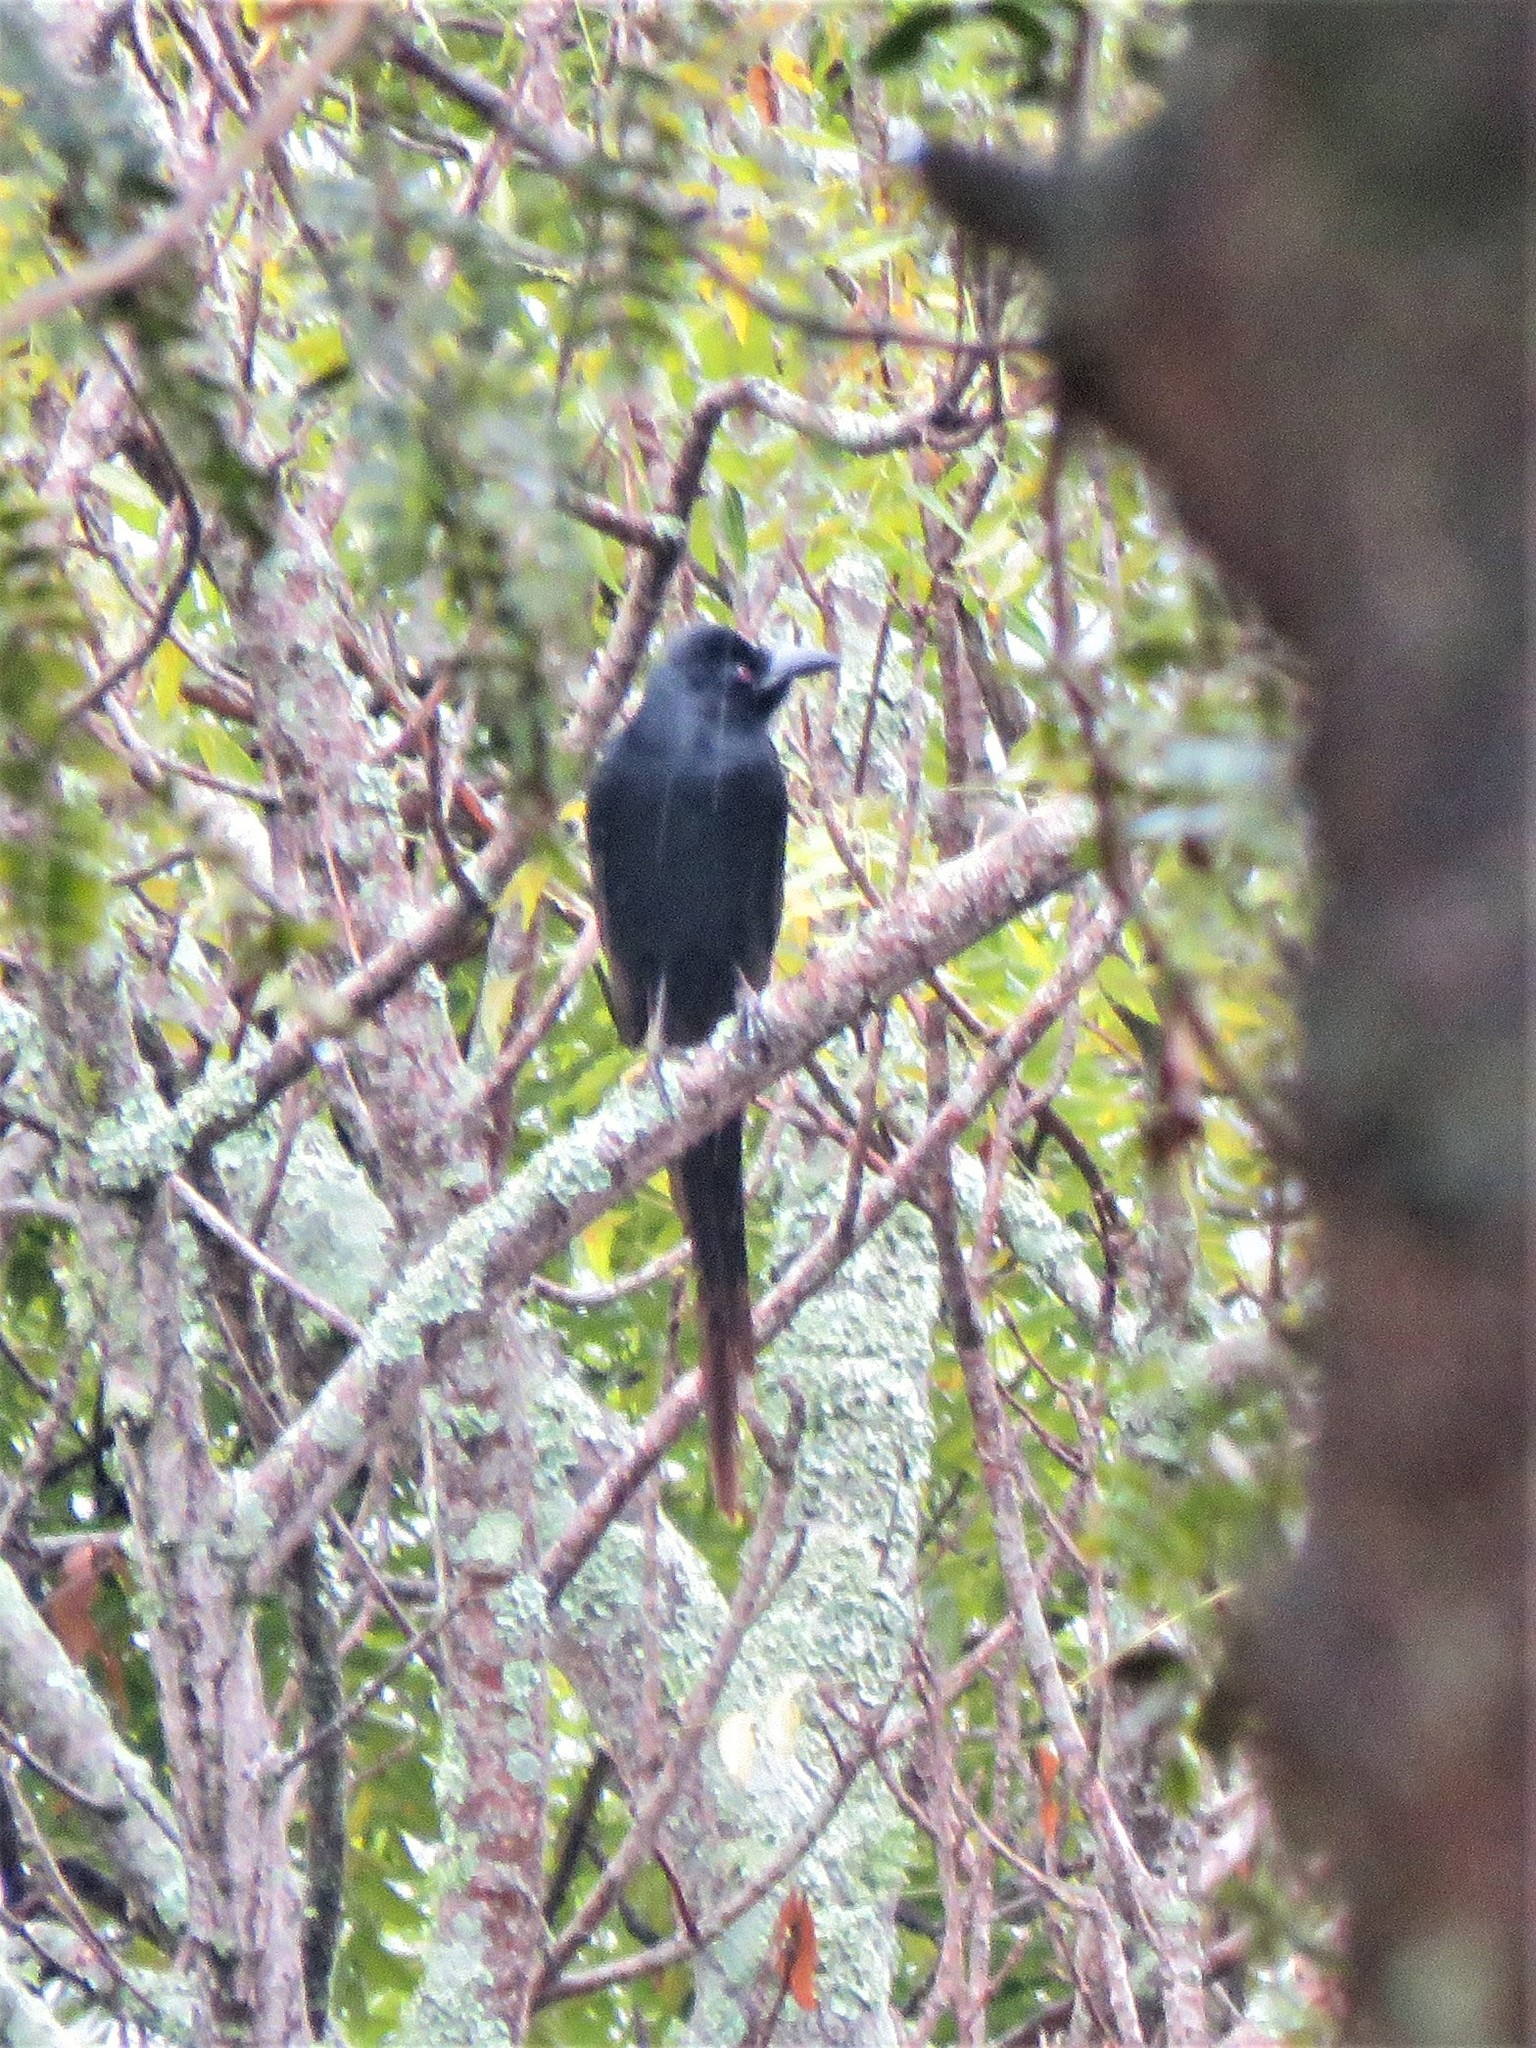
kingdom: Animalia
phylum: Chordata
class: Aves
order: Passeriformes
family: Corvidae
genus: Ptilostomus
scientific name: Ptilostomus afer
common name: Piapiac
